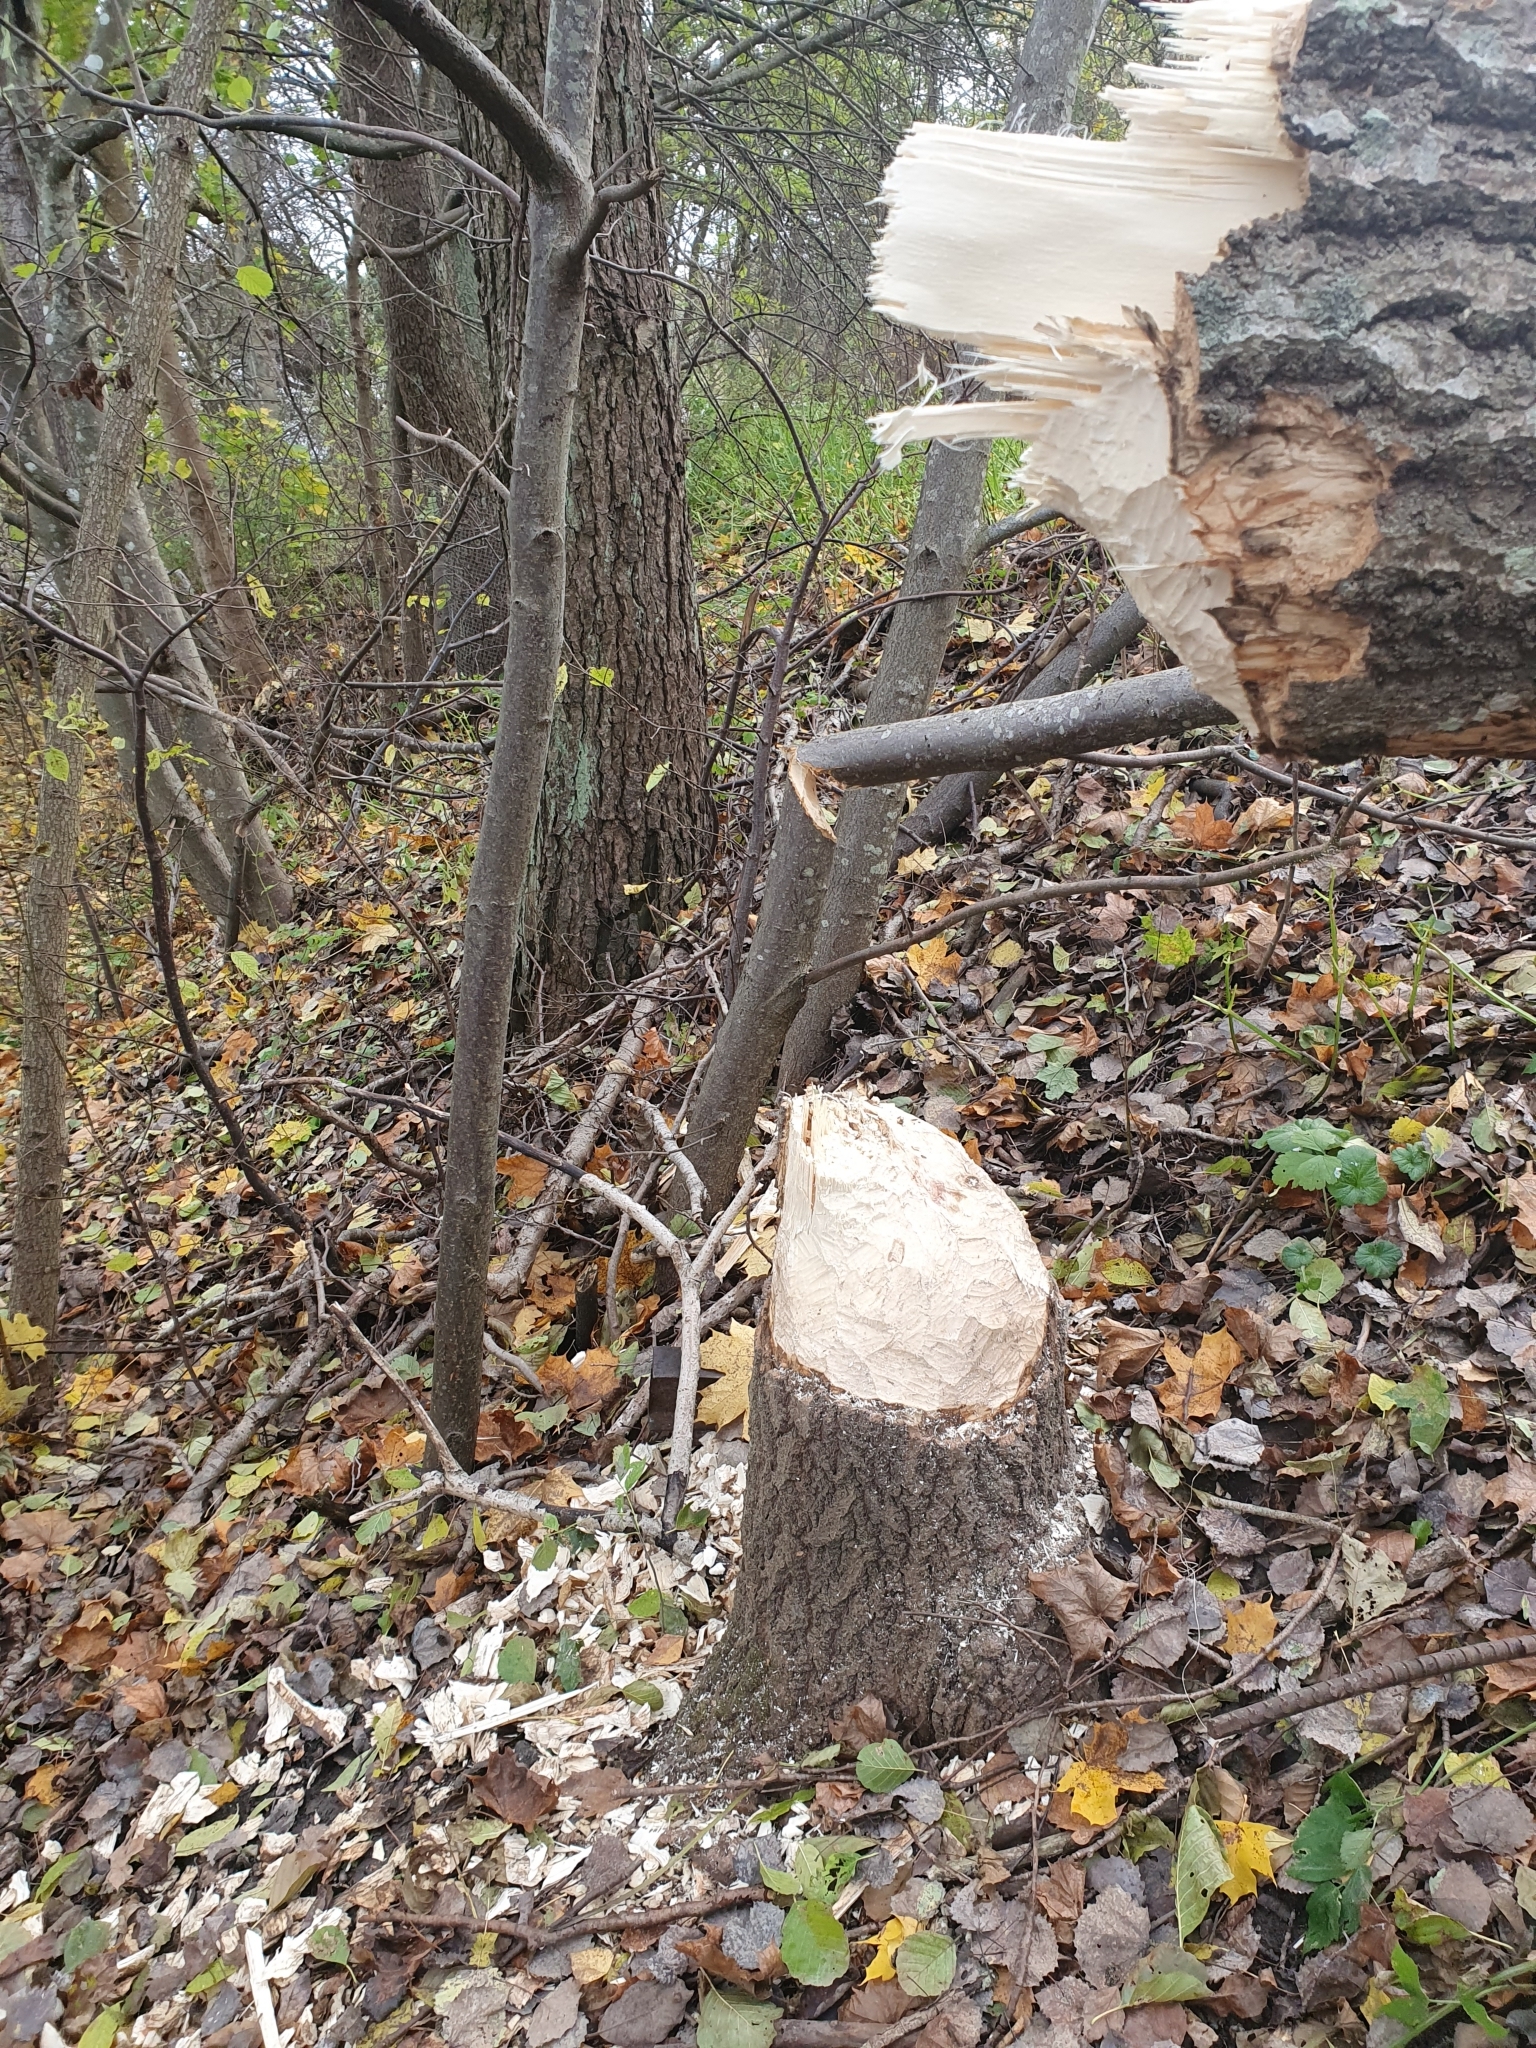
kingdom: Animalia
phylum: Chordata
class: Mammalia
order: Rodentia
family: Castoridae
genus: Castor
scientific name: Castor fiber
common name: Eurasian beaver
